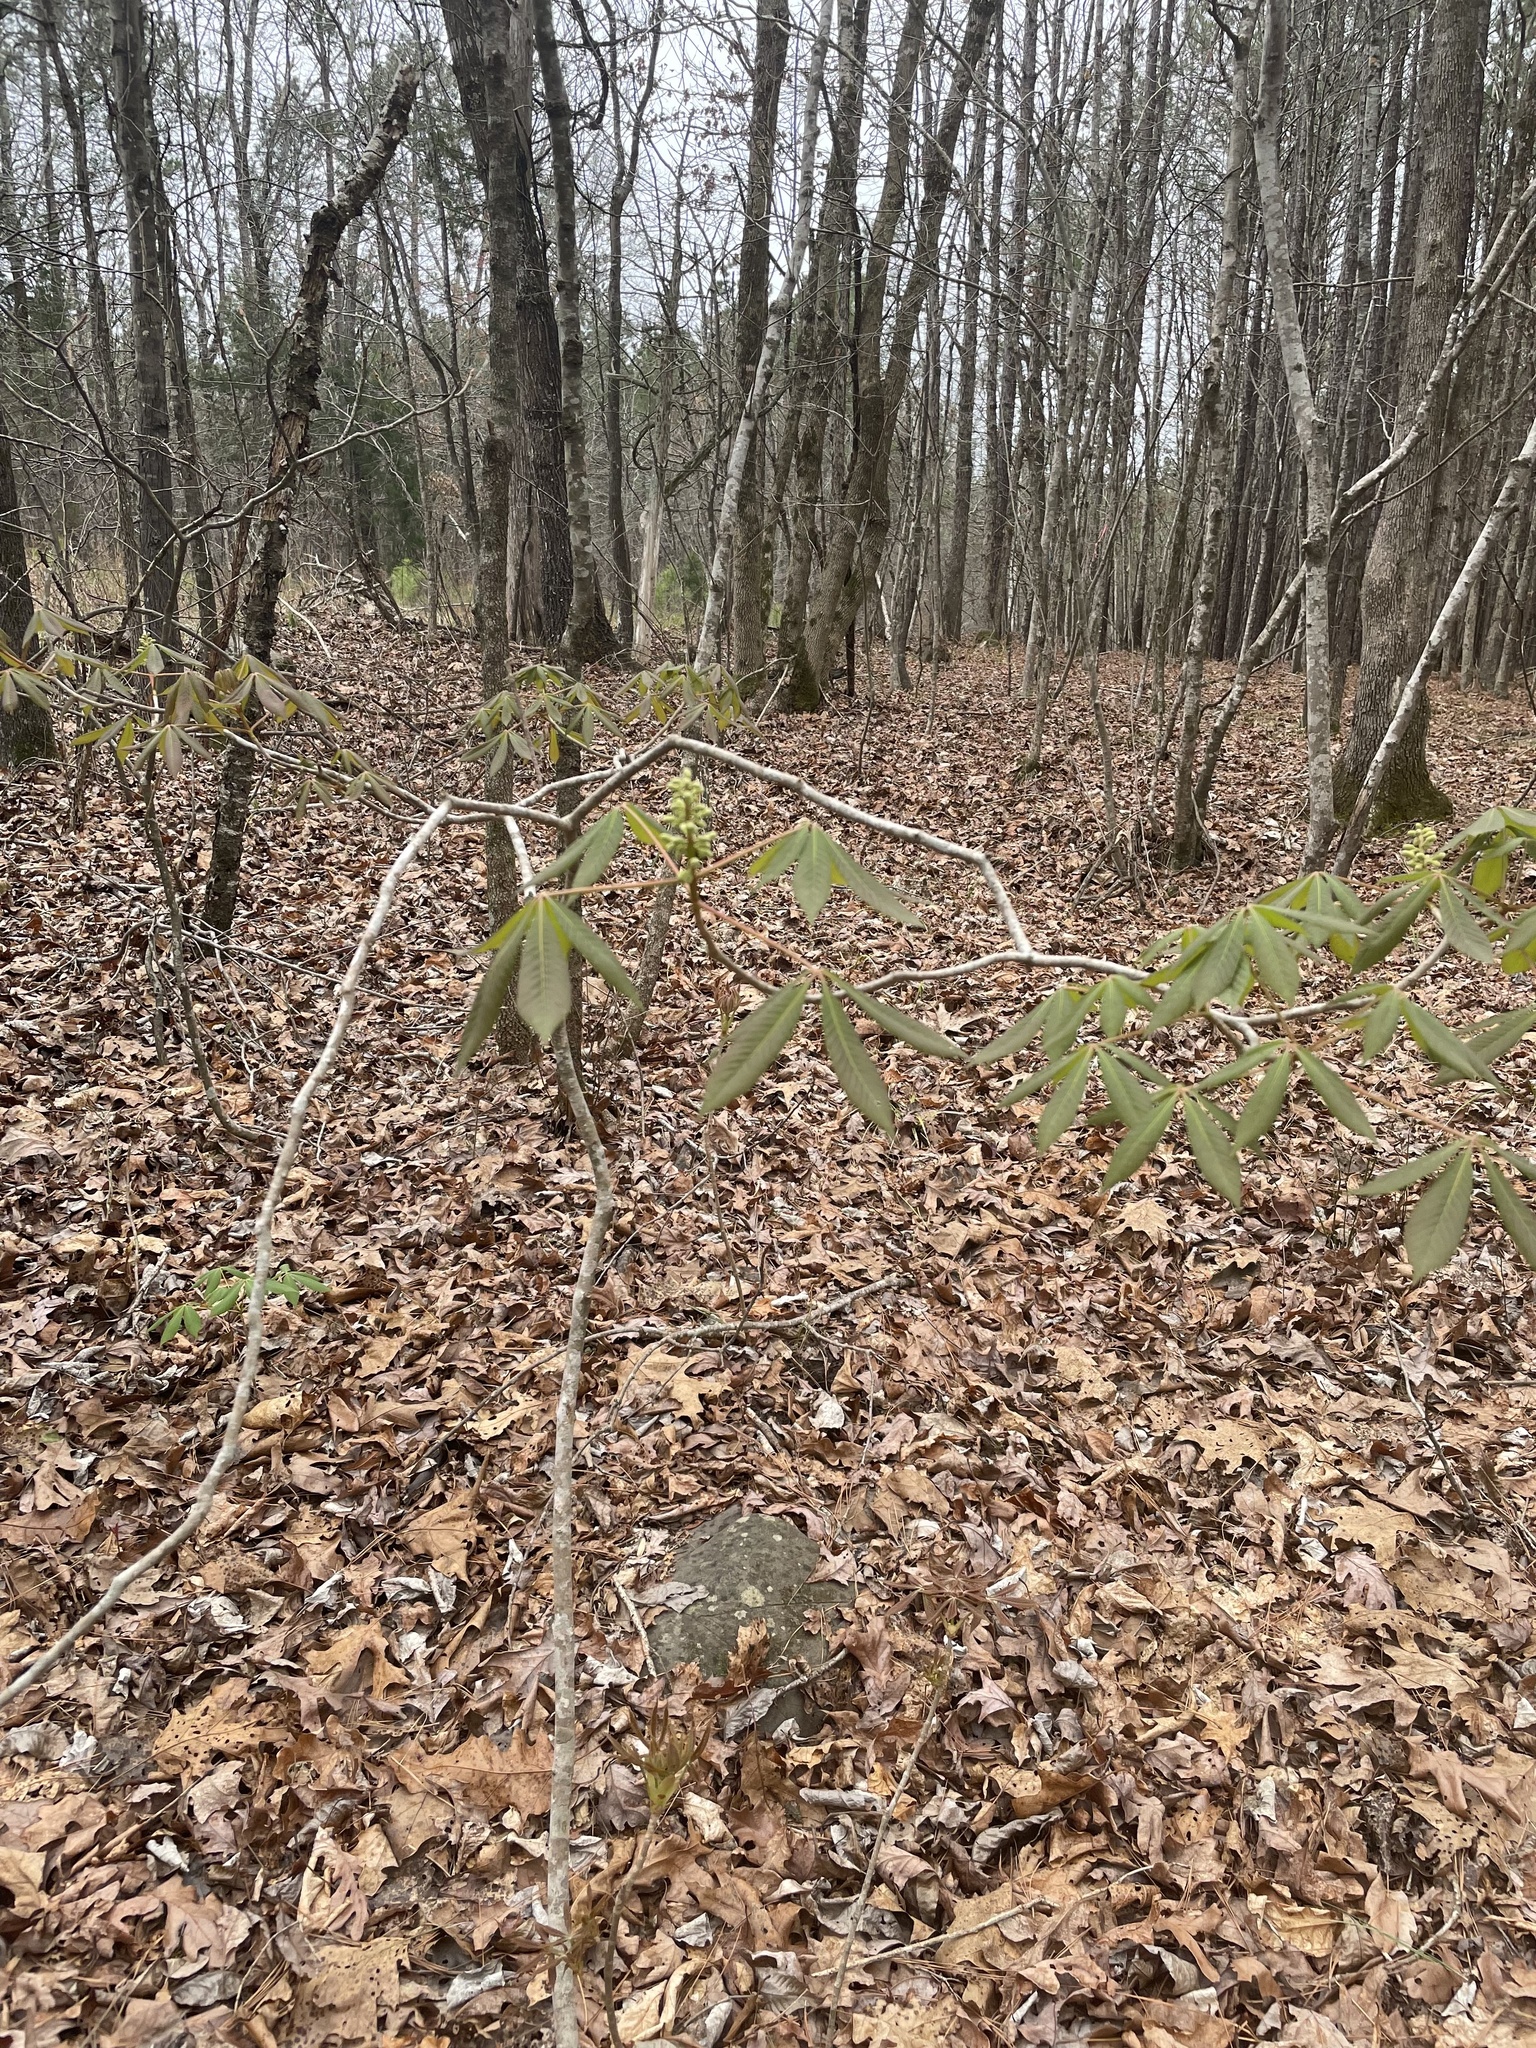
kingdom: Plantae
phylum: Tracheophyta
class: Magnoliopsida
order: Sapindales
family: Sapindaceae
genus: Aesculus
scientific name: Aesculus sylvatica
